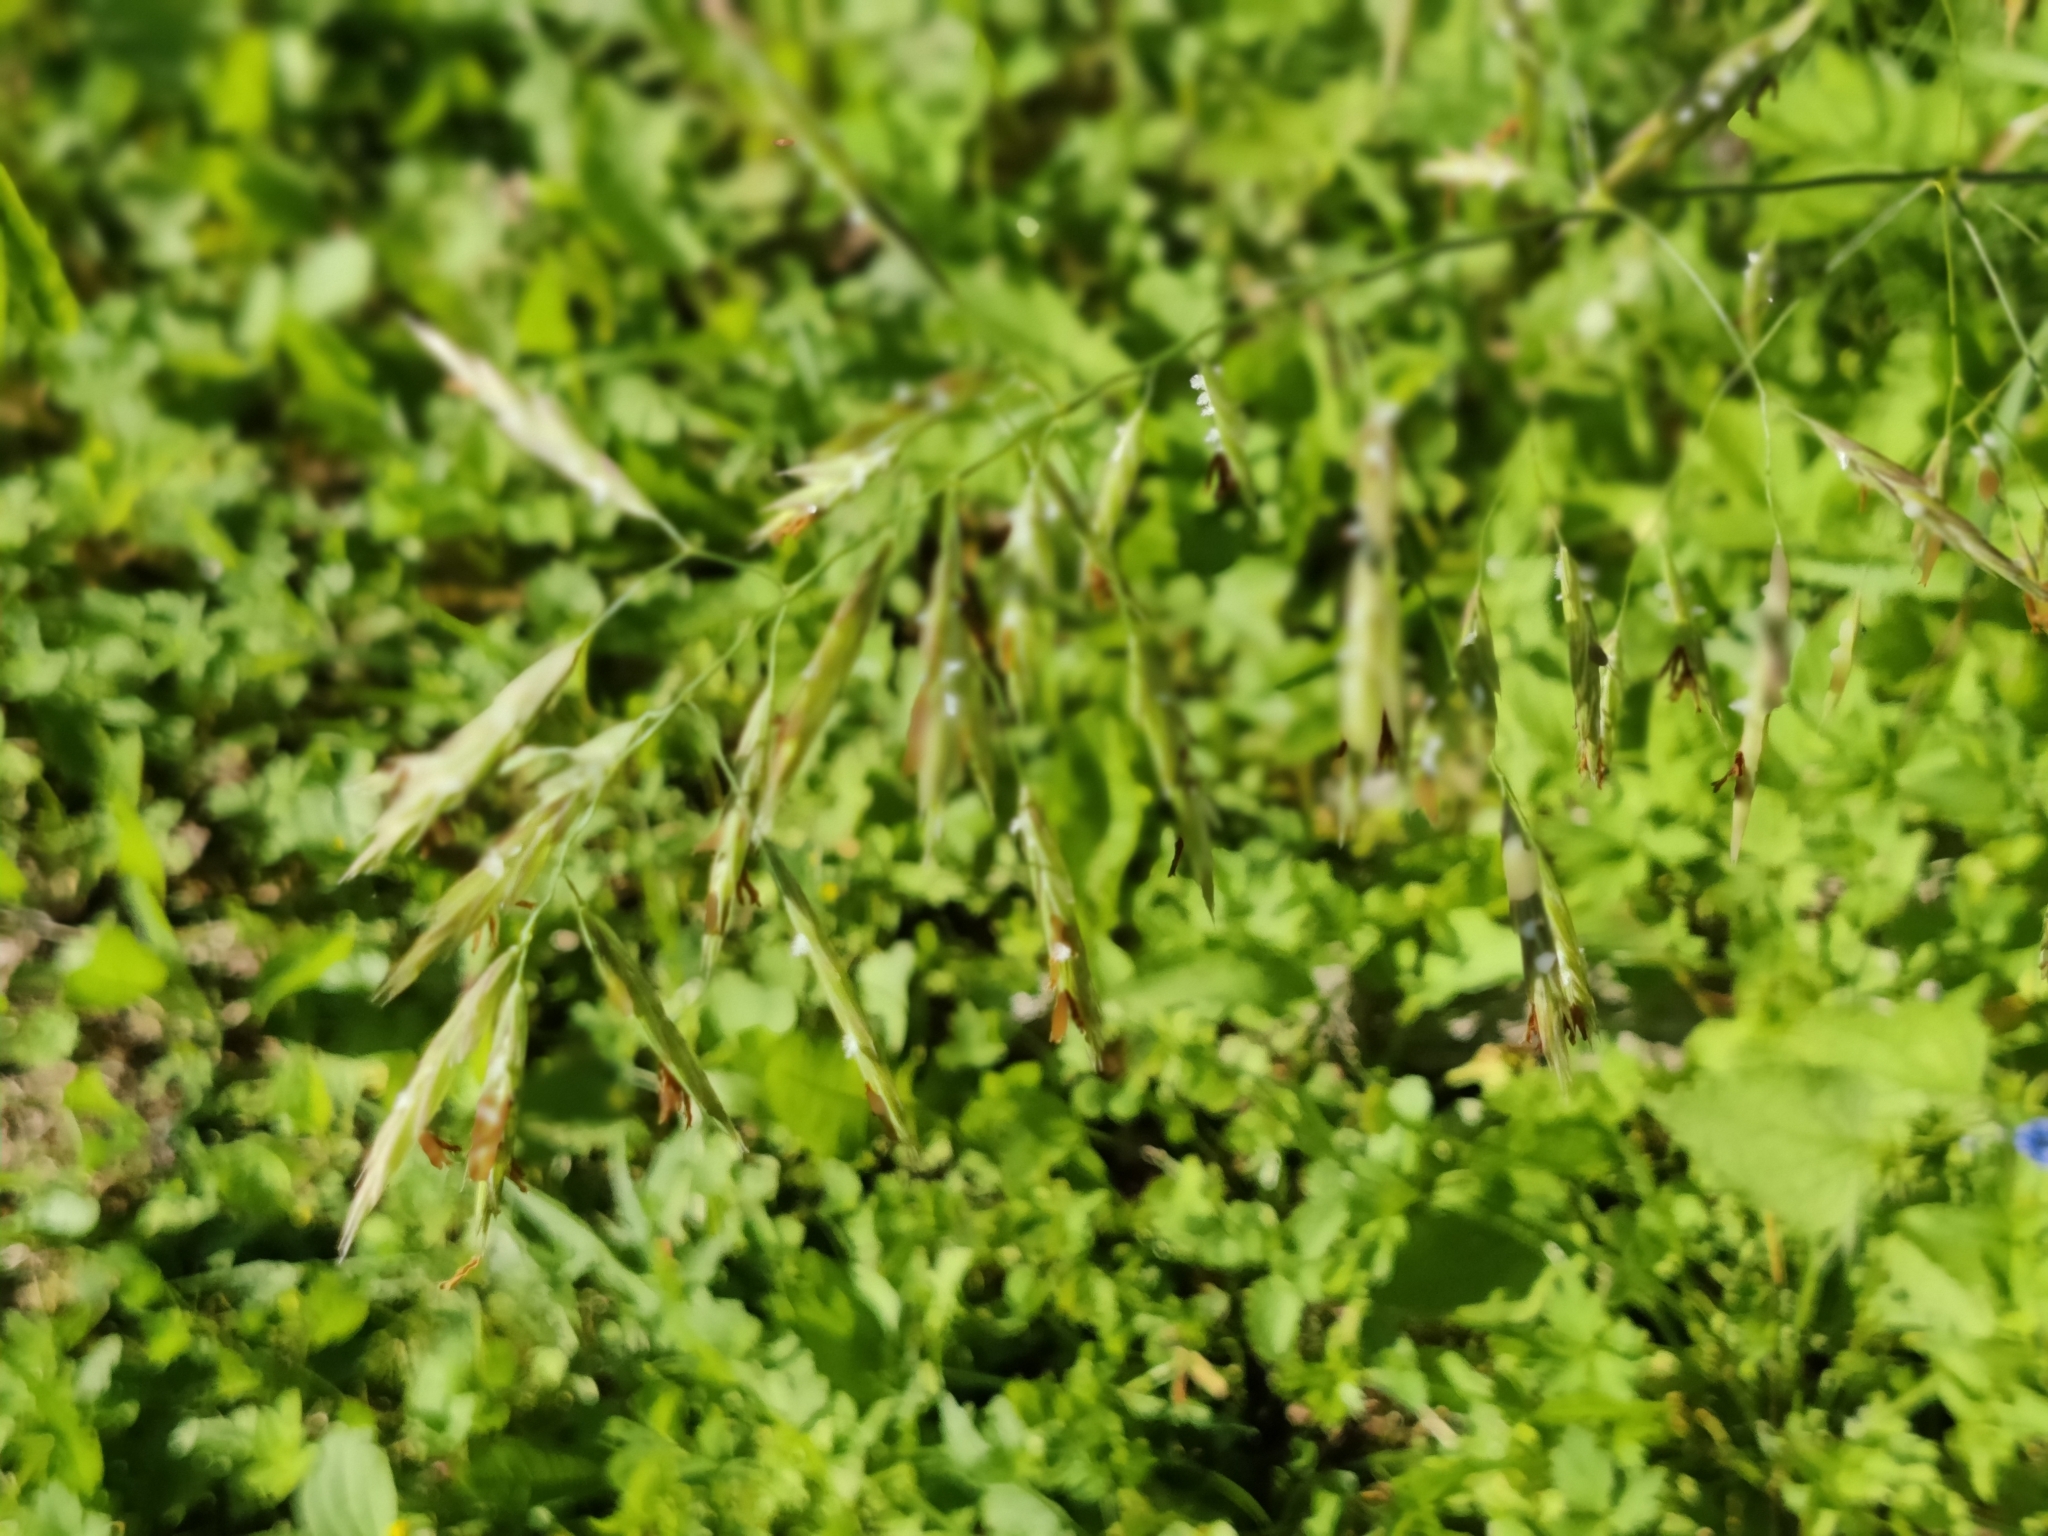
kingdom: Plantae
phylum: Tracheophyta
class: Liliopsida
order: Poales
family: Poaceae
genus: Bromus
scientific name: Bromus inermis
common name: Smooth brome
